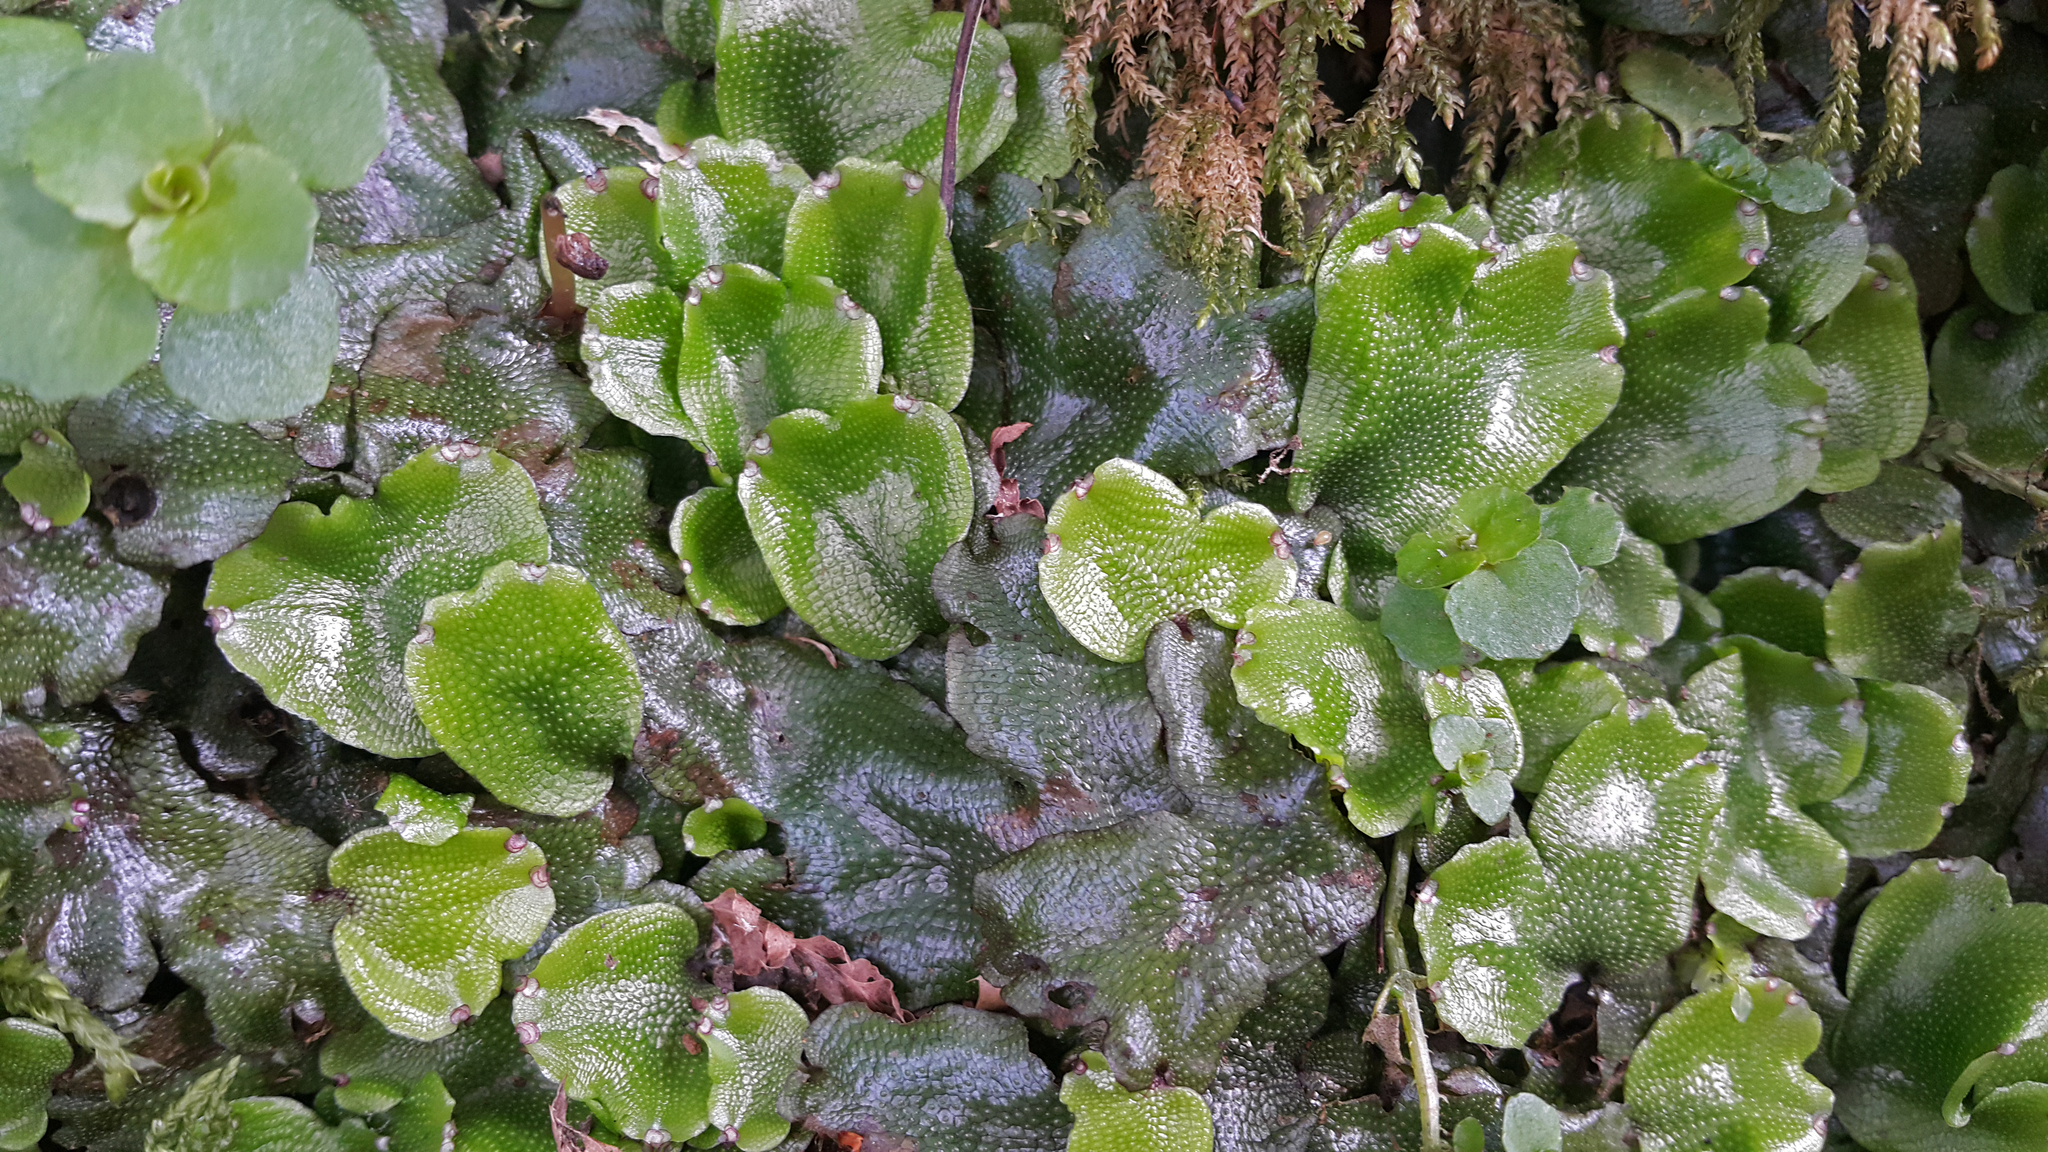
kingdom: Plantae
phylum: Marchantiophyta
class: Marchantiopsida
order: Marchantiales
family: Conocephalaceae
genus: Conocephalum
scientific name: Conocephalum conicum
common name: Great scented liverwort
